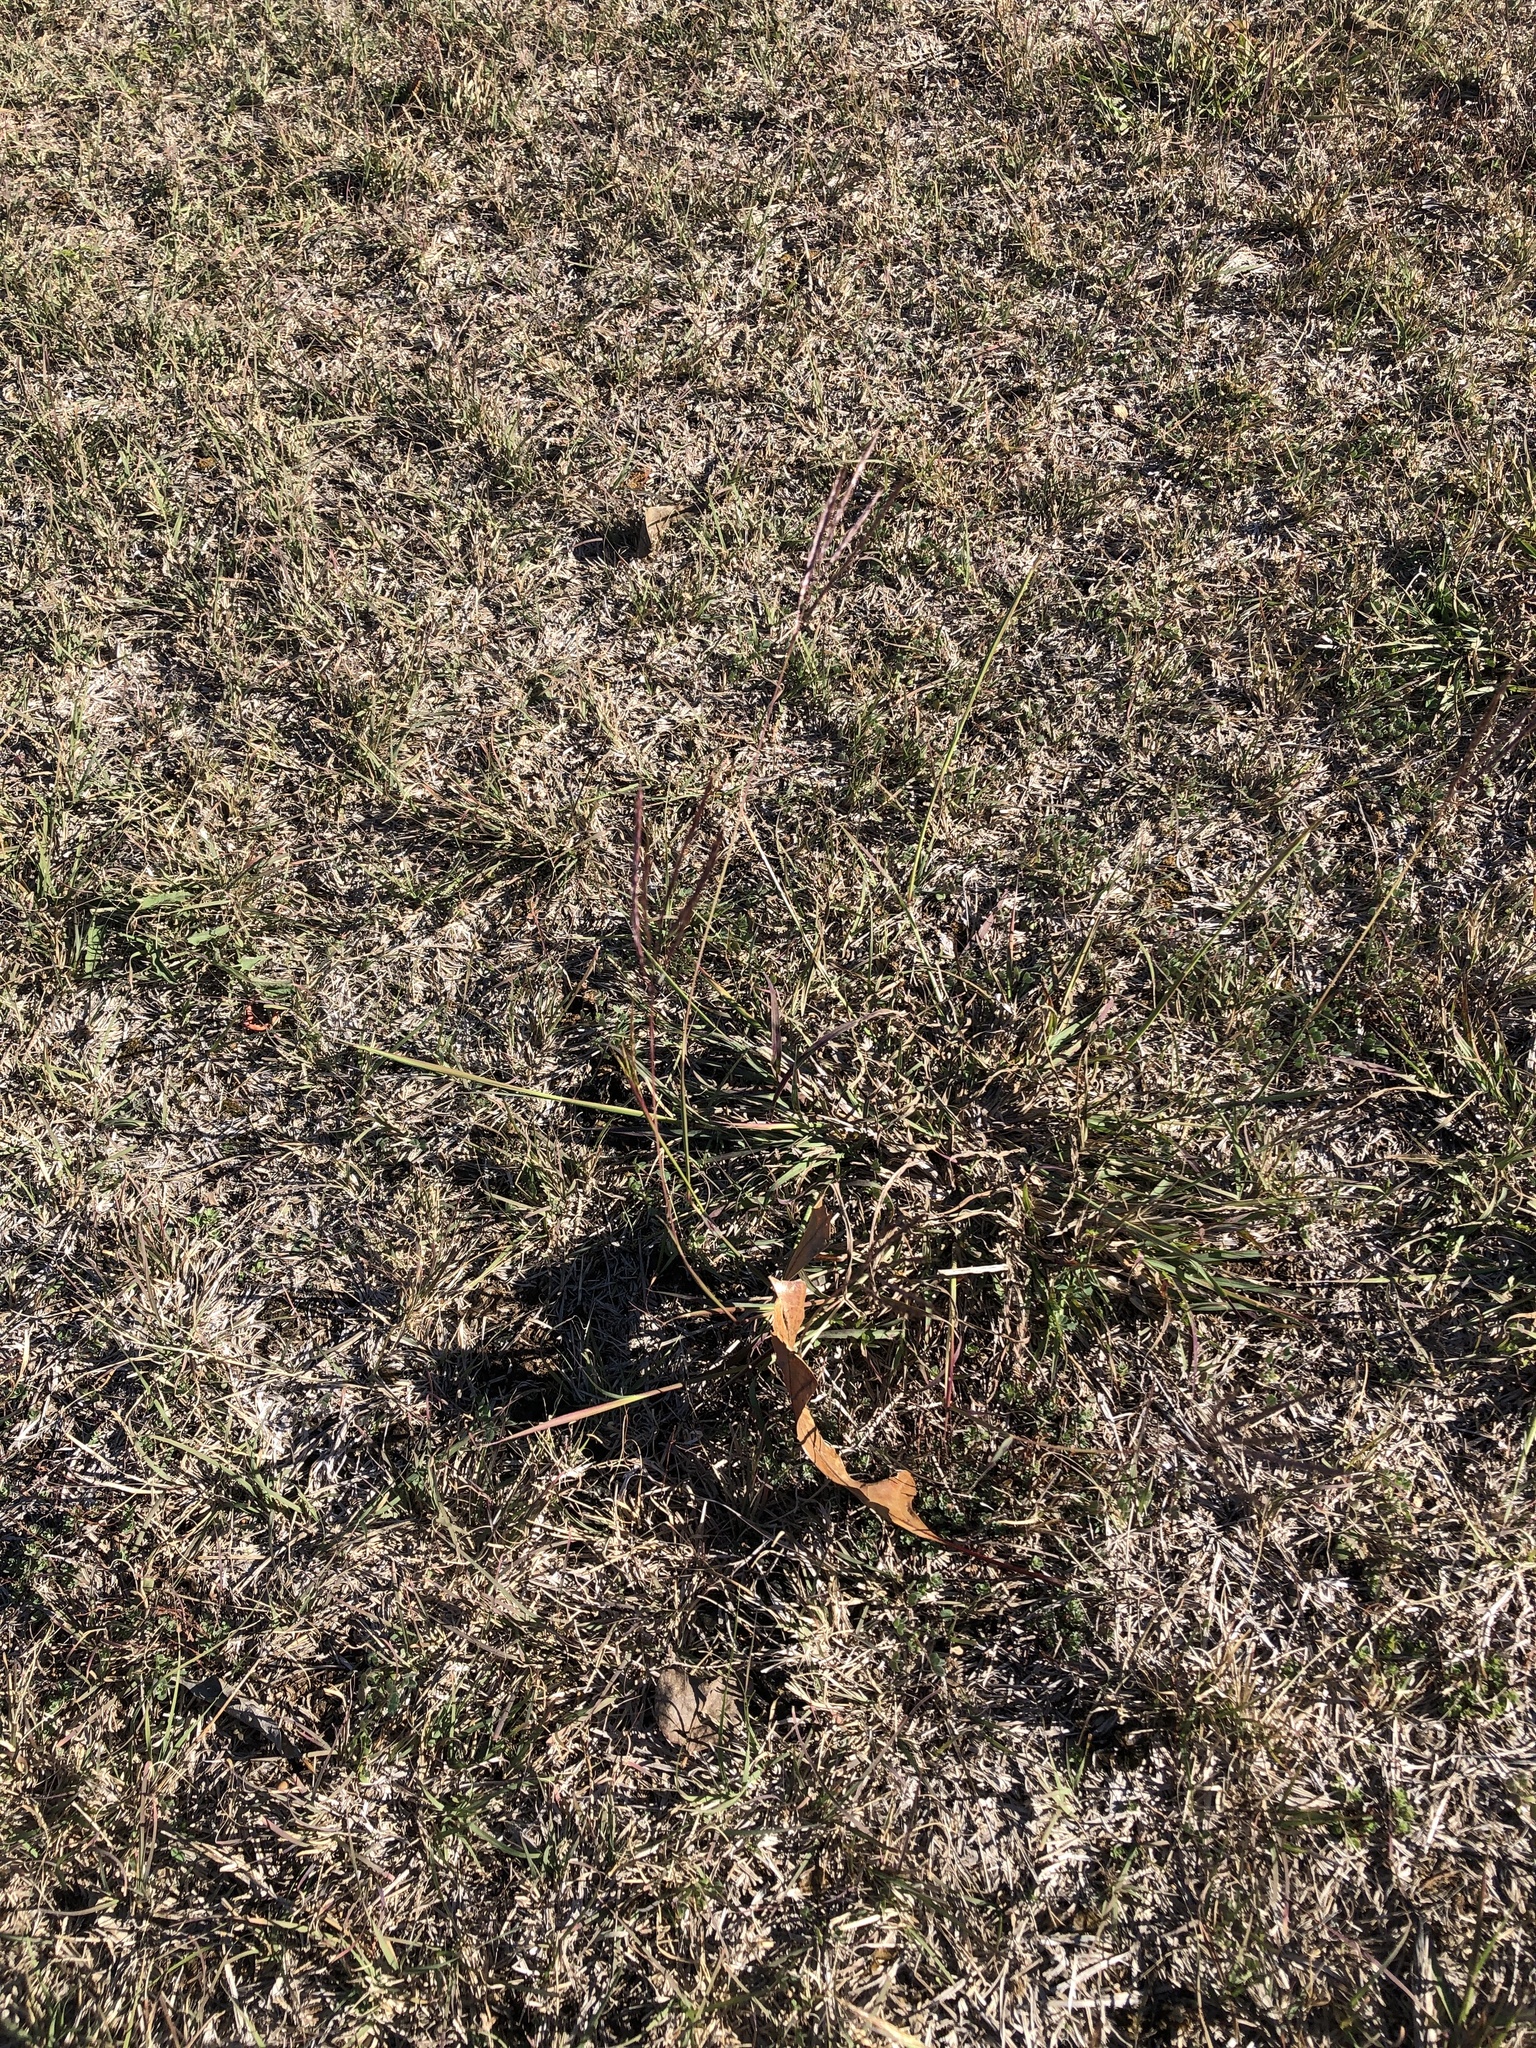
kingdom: Plantae
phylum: Tracheophyta
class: Liliopsida
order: Poales
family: Poaceae
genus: Bothriochloa
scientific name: Bothriochloa ischaemum
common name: Yellow bluestem
